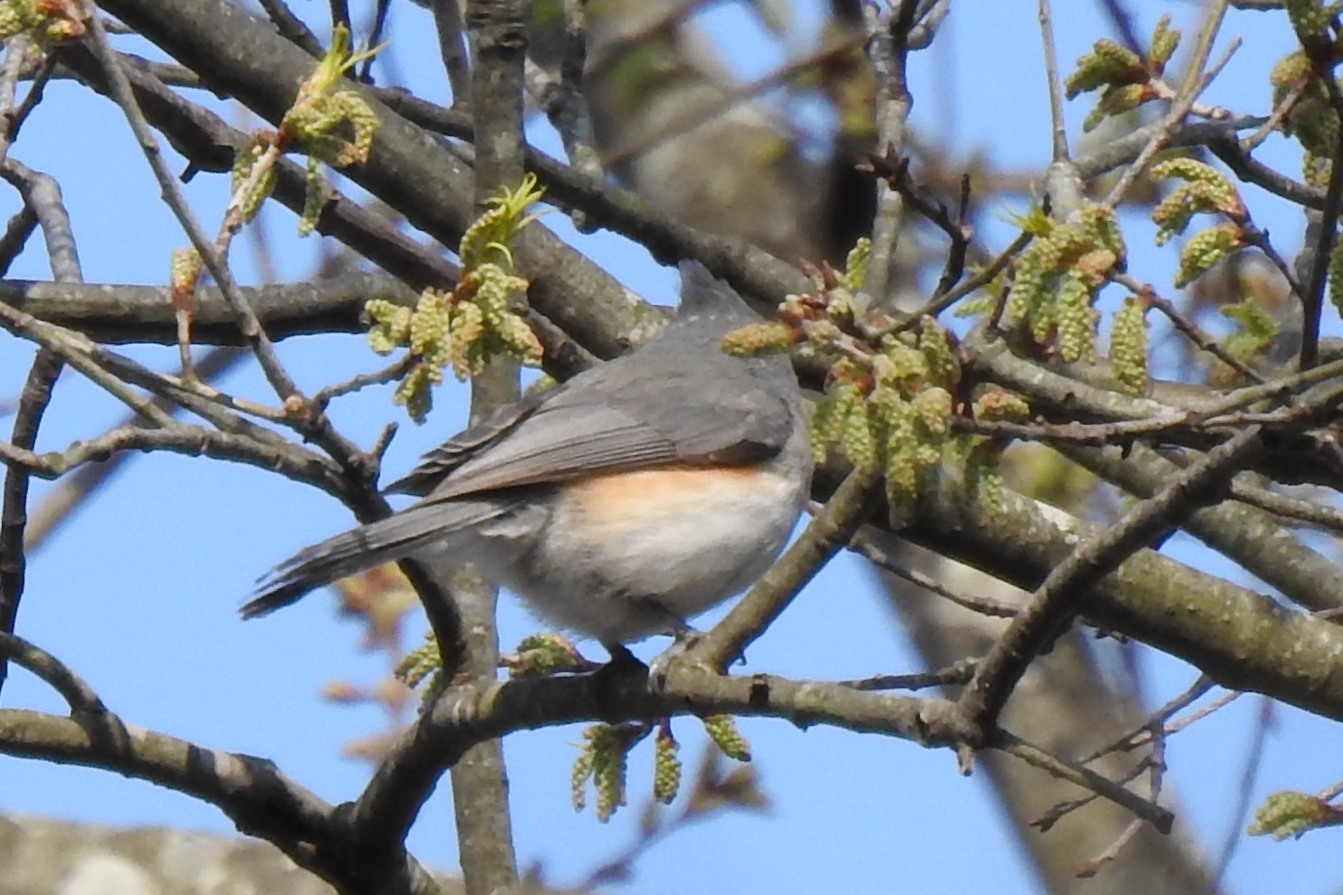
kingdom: Animalia
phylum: Chordata
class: Aves
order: Passeriformes
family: Paridae
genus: Baeolophus
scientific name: Baeolophus bicolor
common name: Tufted titmouse
